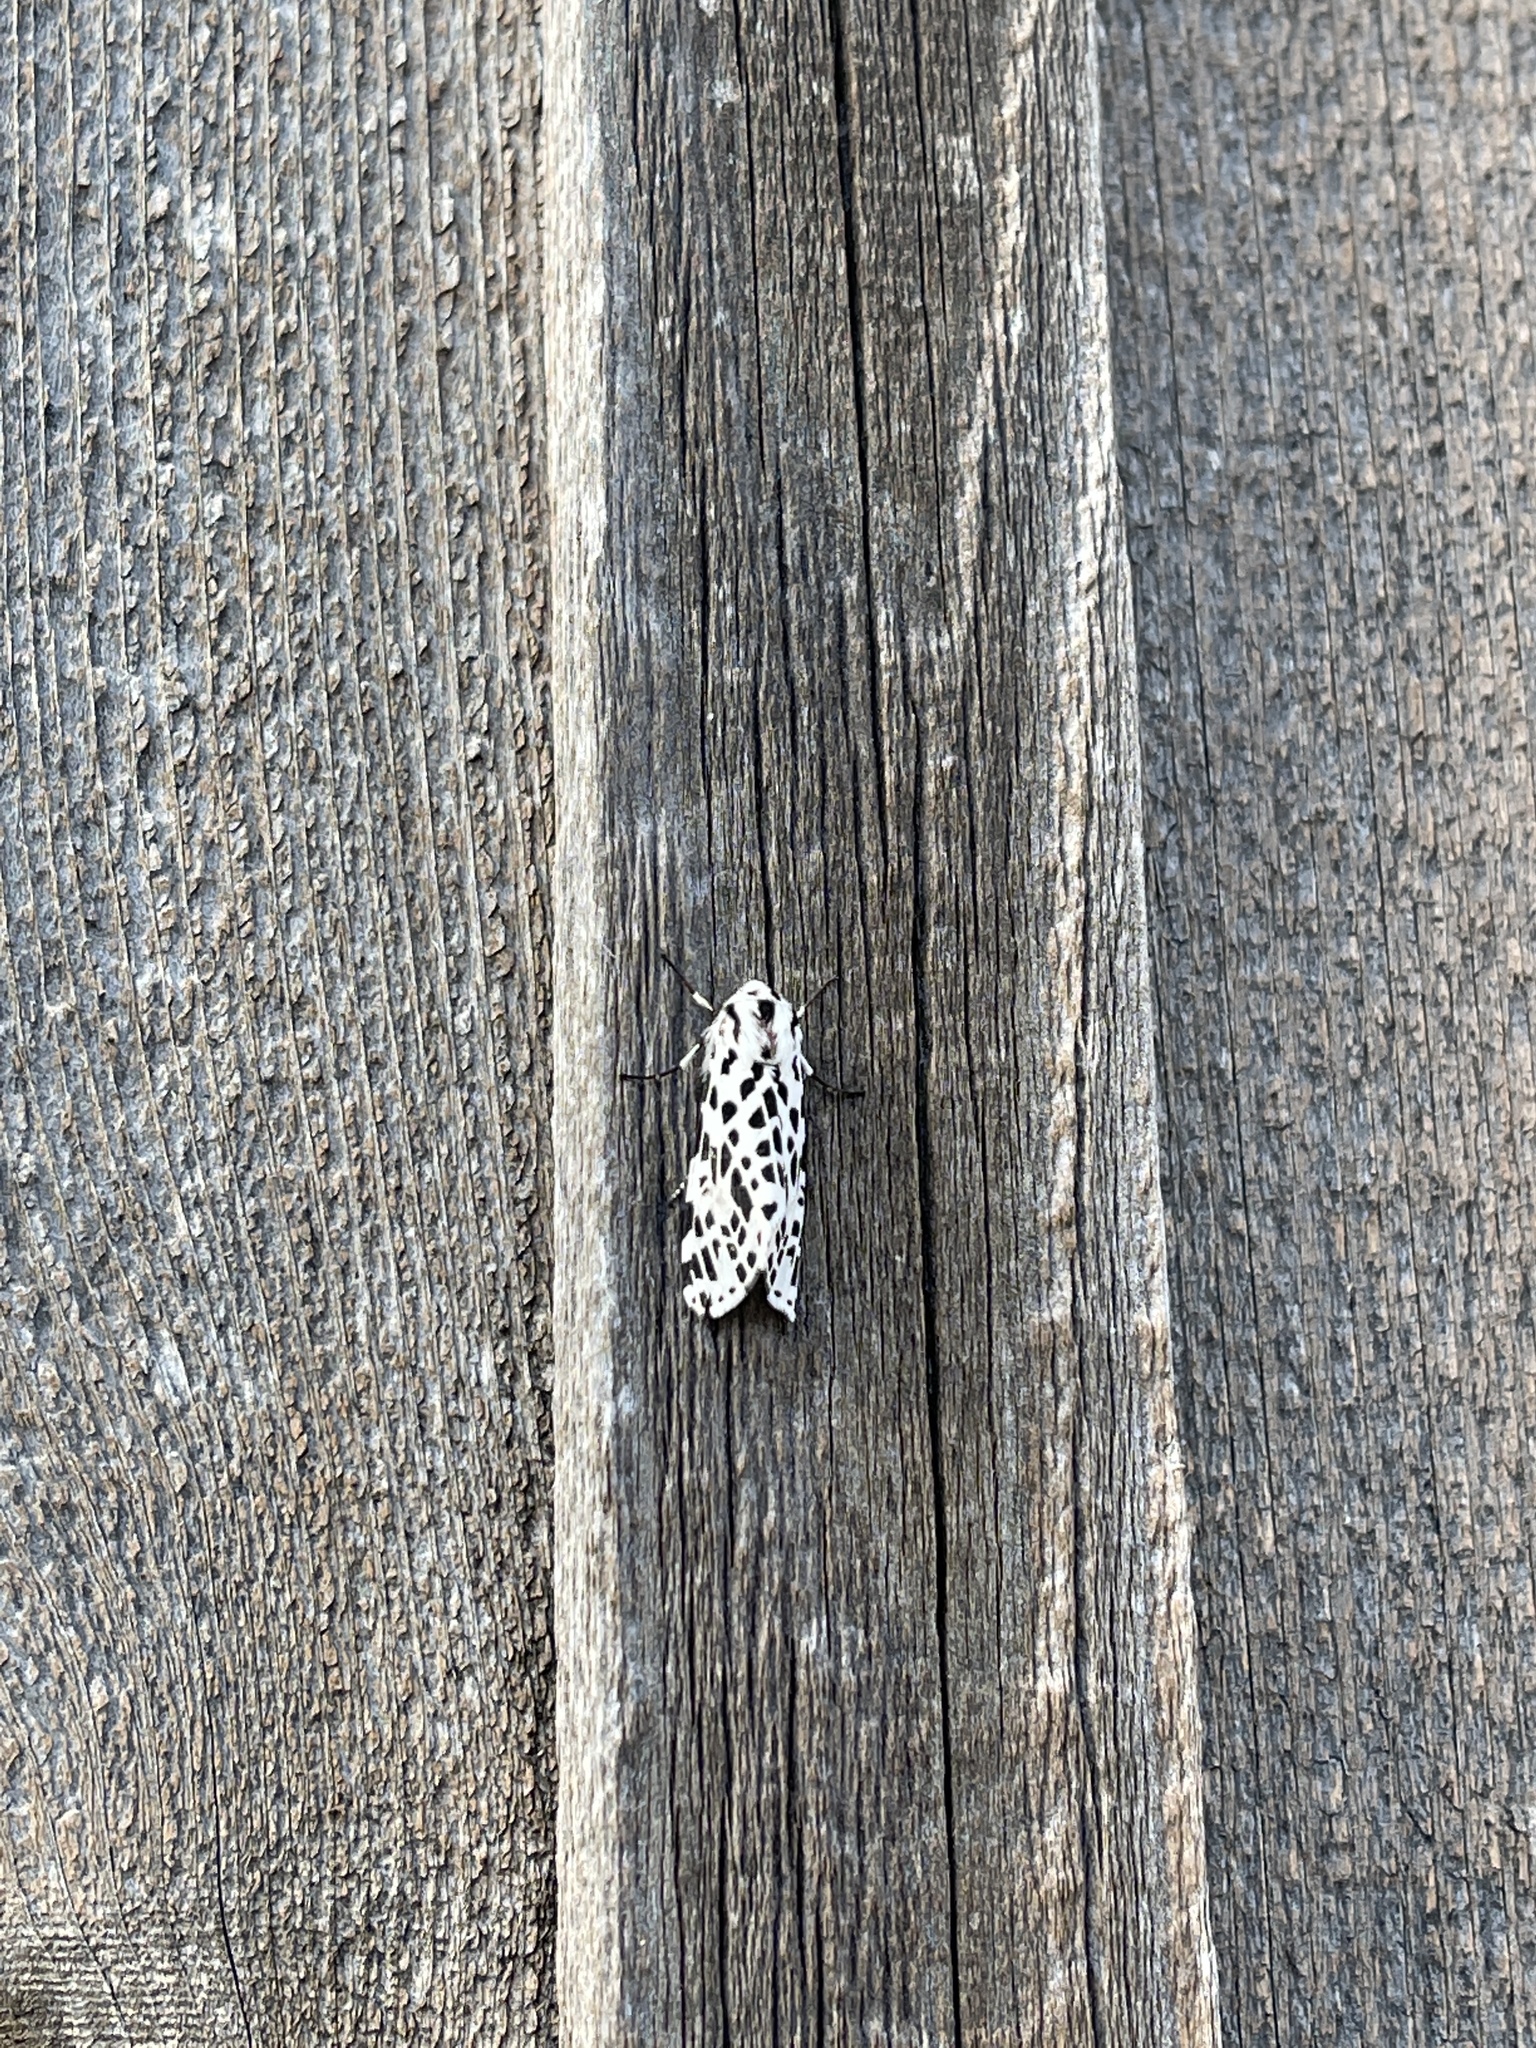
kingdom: Animalia
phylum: Arthropoda
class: Insecta
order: Lepidoptera
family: Erebidae
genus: Hypercompe
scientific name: Hypercompe permaculata
